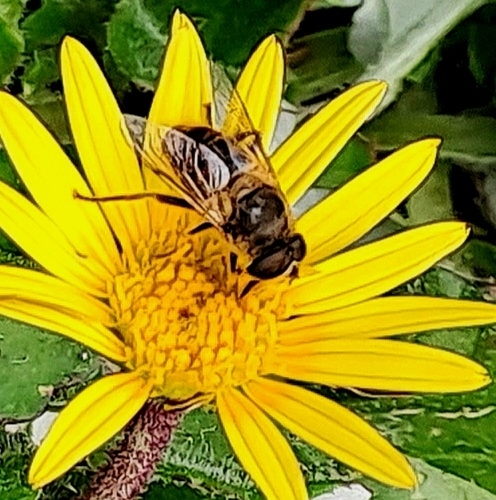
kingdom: Animalia
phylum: Arthropoda
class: Insecta
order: Diptera
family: Syrphidae
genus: Eristalis
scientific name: Eristalis tenax
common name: Drone fly
